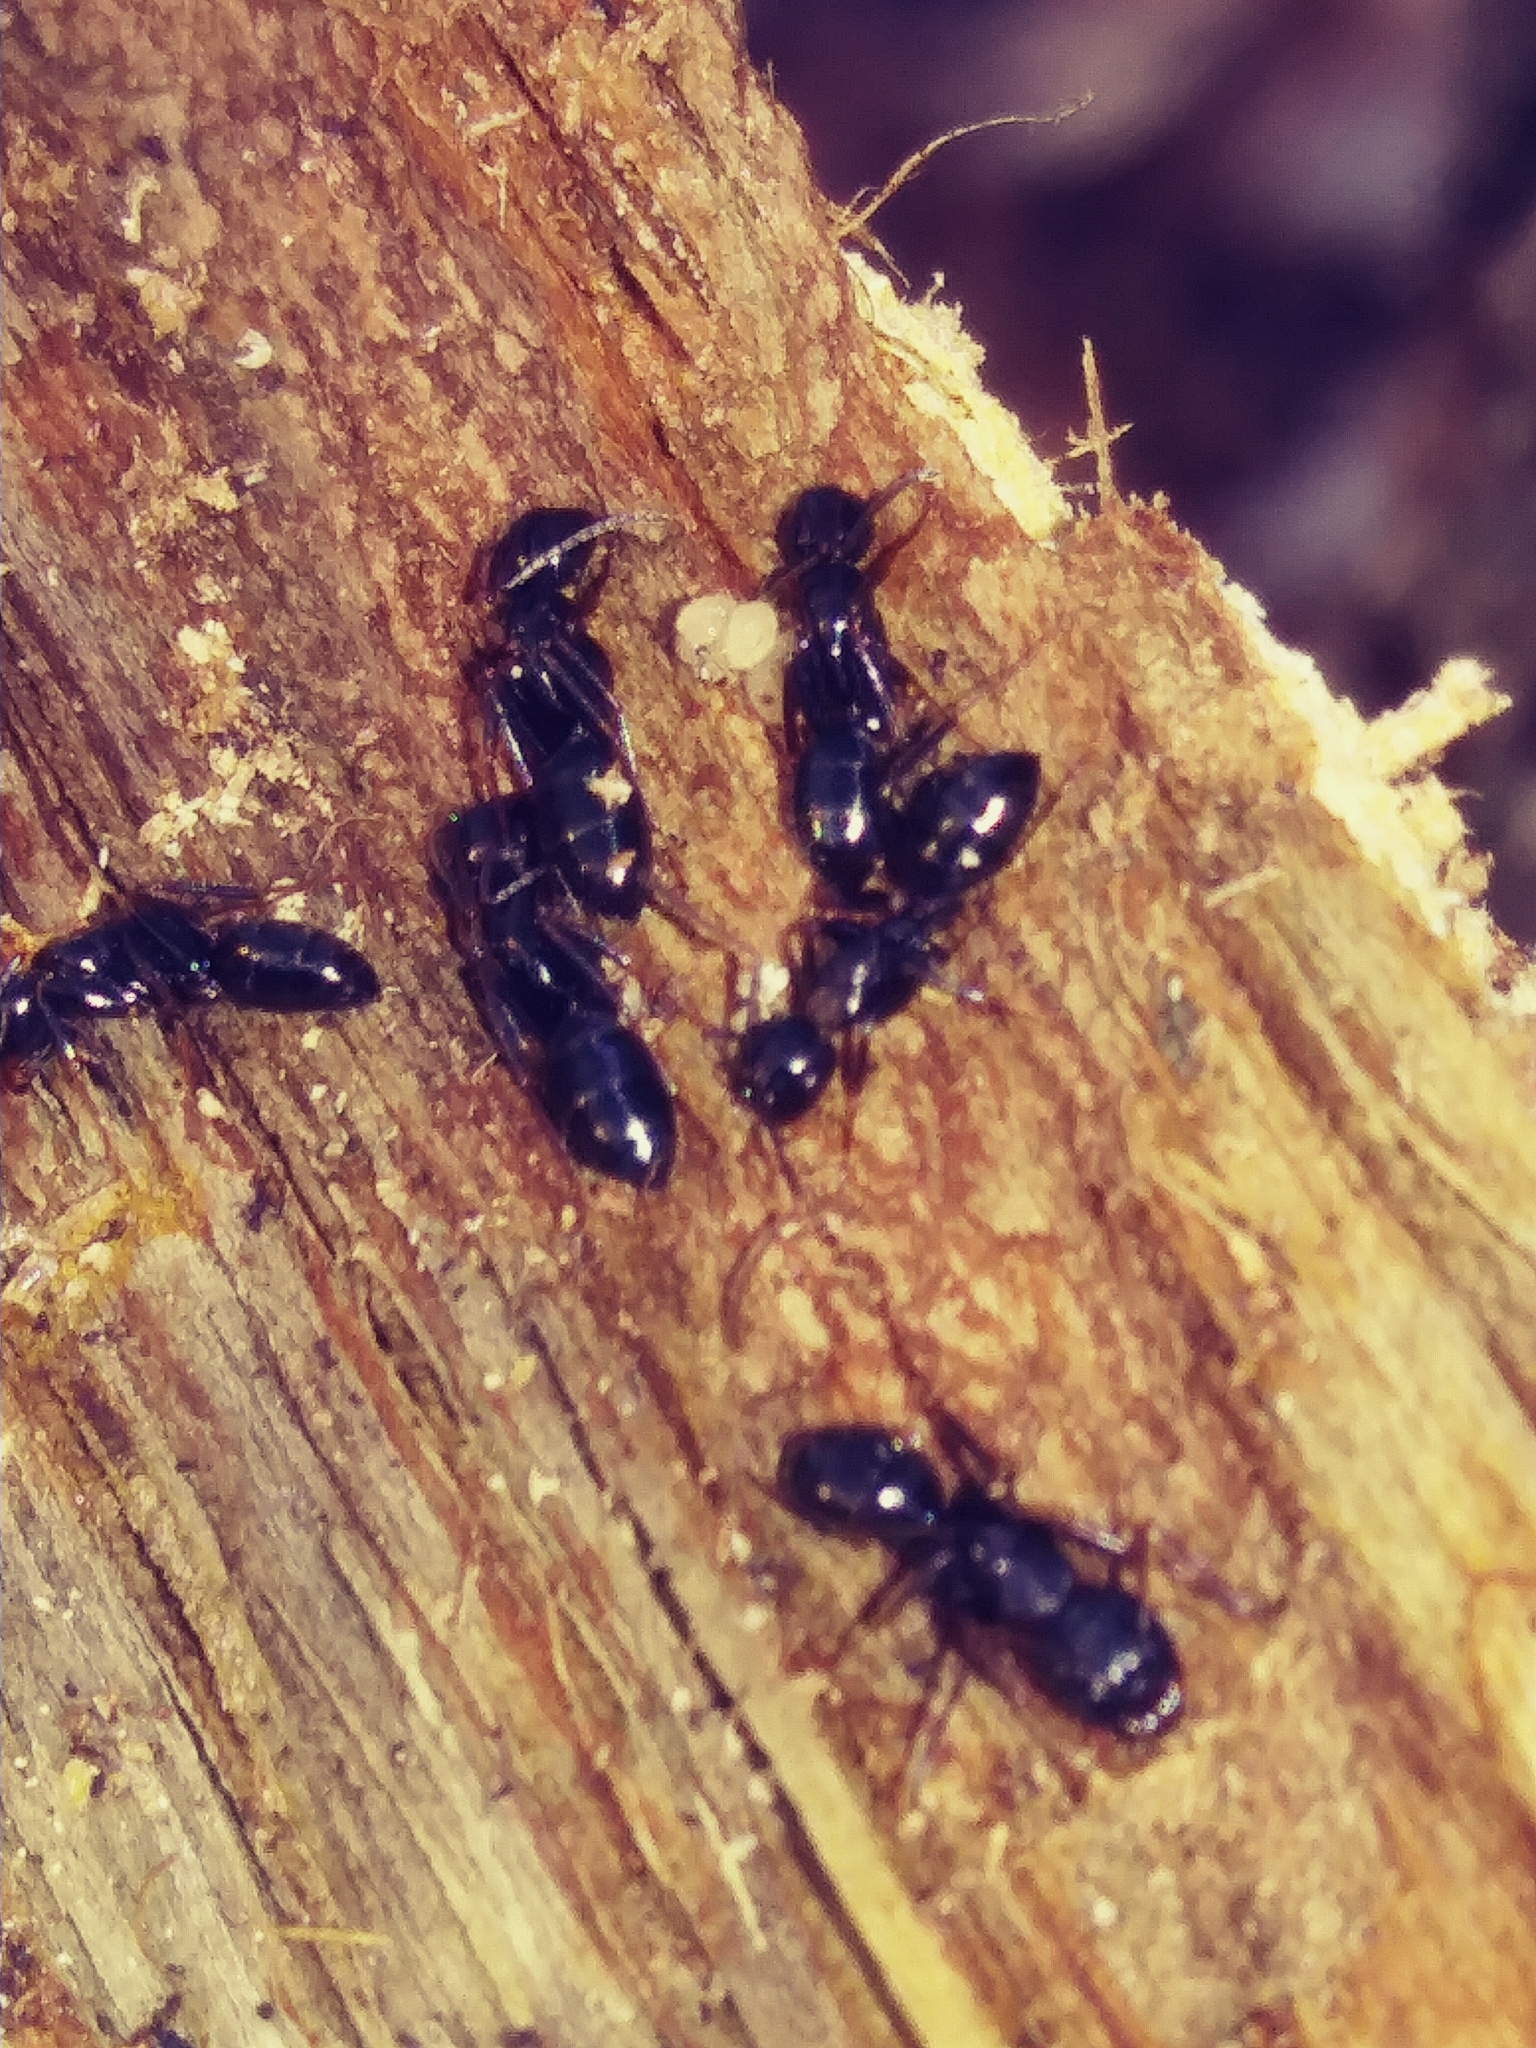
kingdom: Animalia
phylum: Arthropoda
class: Insecta
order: Hymenoptera
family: Formicidae
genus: Camponotus
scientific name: Camponotus nearcticus
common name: Smaller carpenter ant
